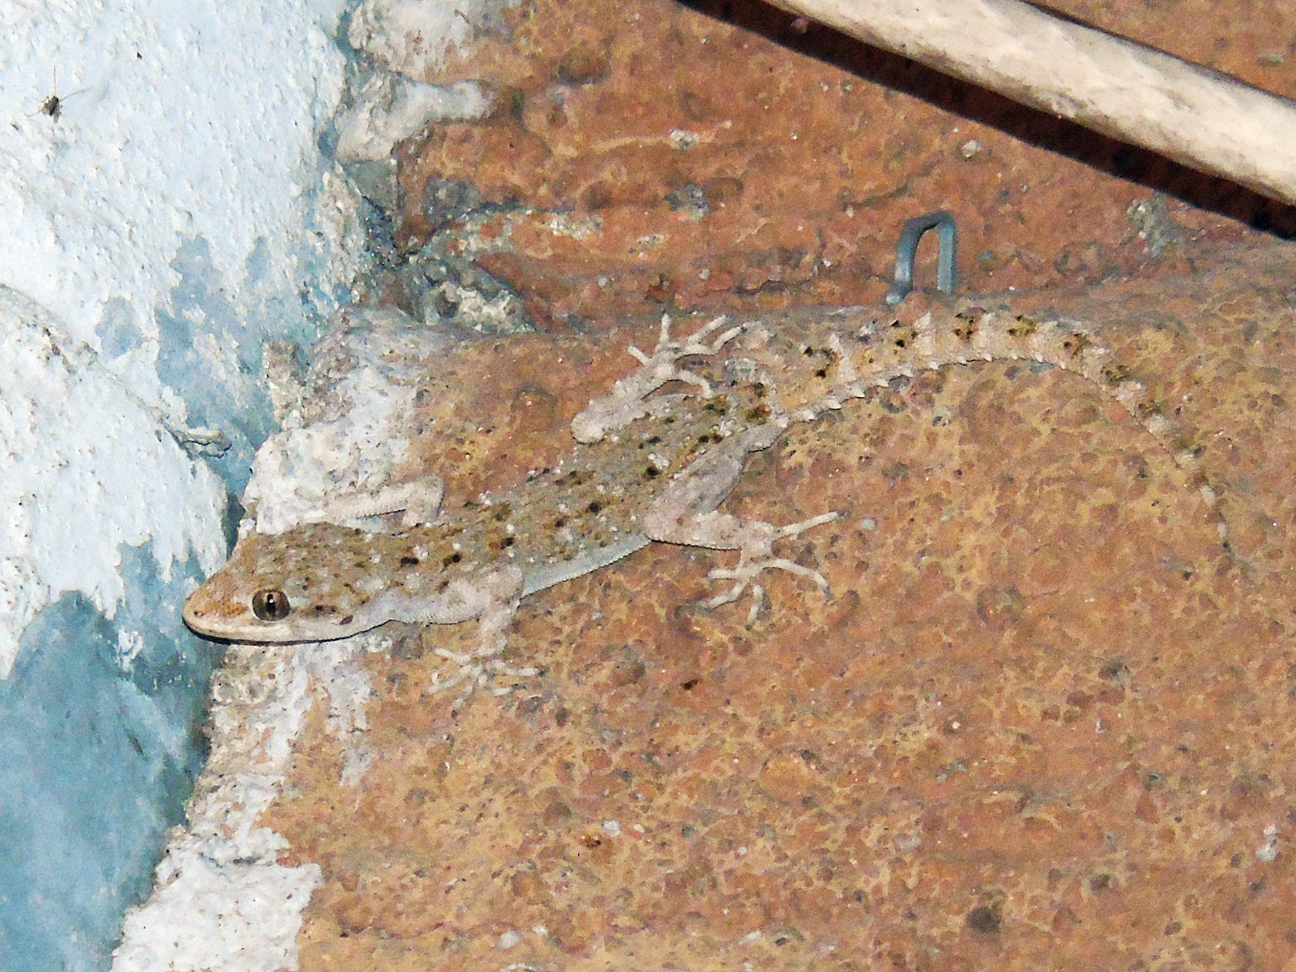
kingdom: Animalia
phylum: Chordata
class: Squamata
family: Gekkonidae
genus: Mediodactylus
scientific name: Mediodactylus kotschyi
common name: Kotschy's gecko
